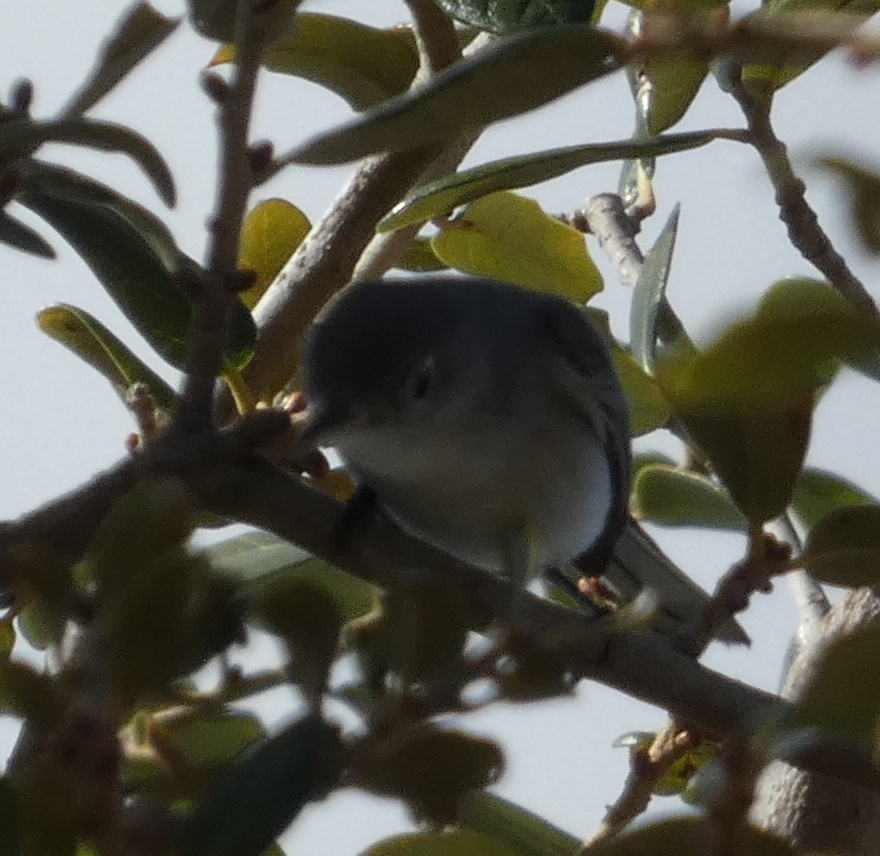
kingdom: Animalia
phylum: Chordata
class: Aves
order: Passeriformes
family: Polioptilidae
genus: Polioptila
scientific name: Polioptila caerulea
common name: Blue-gray gnatcatcher
